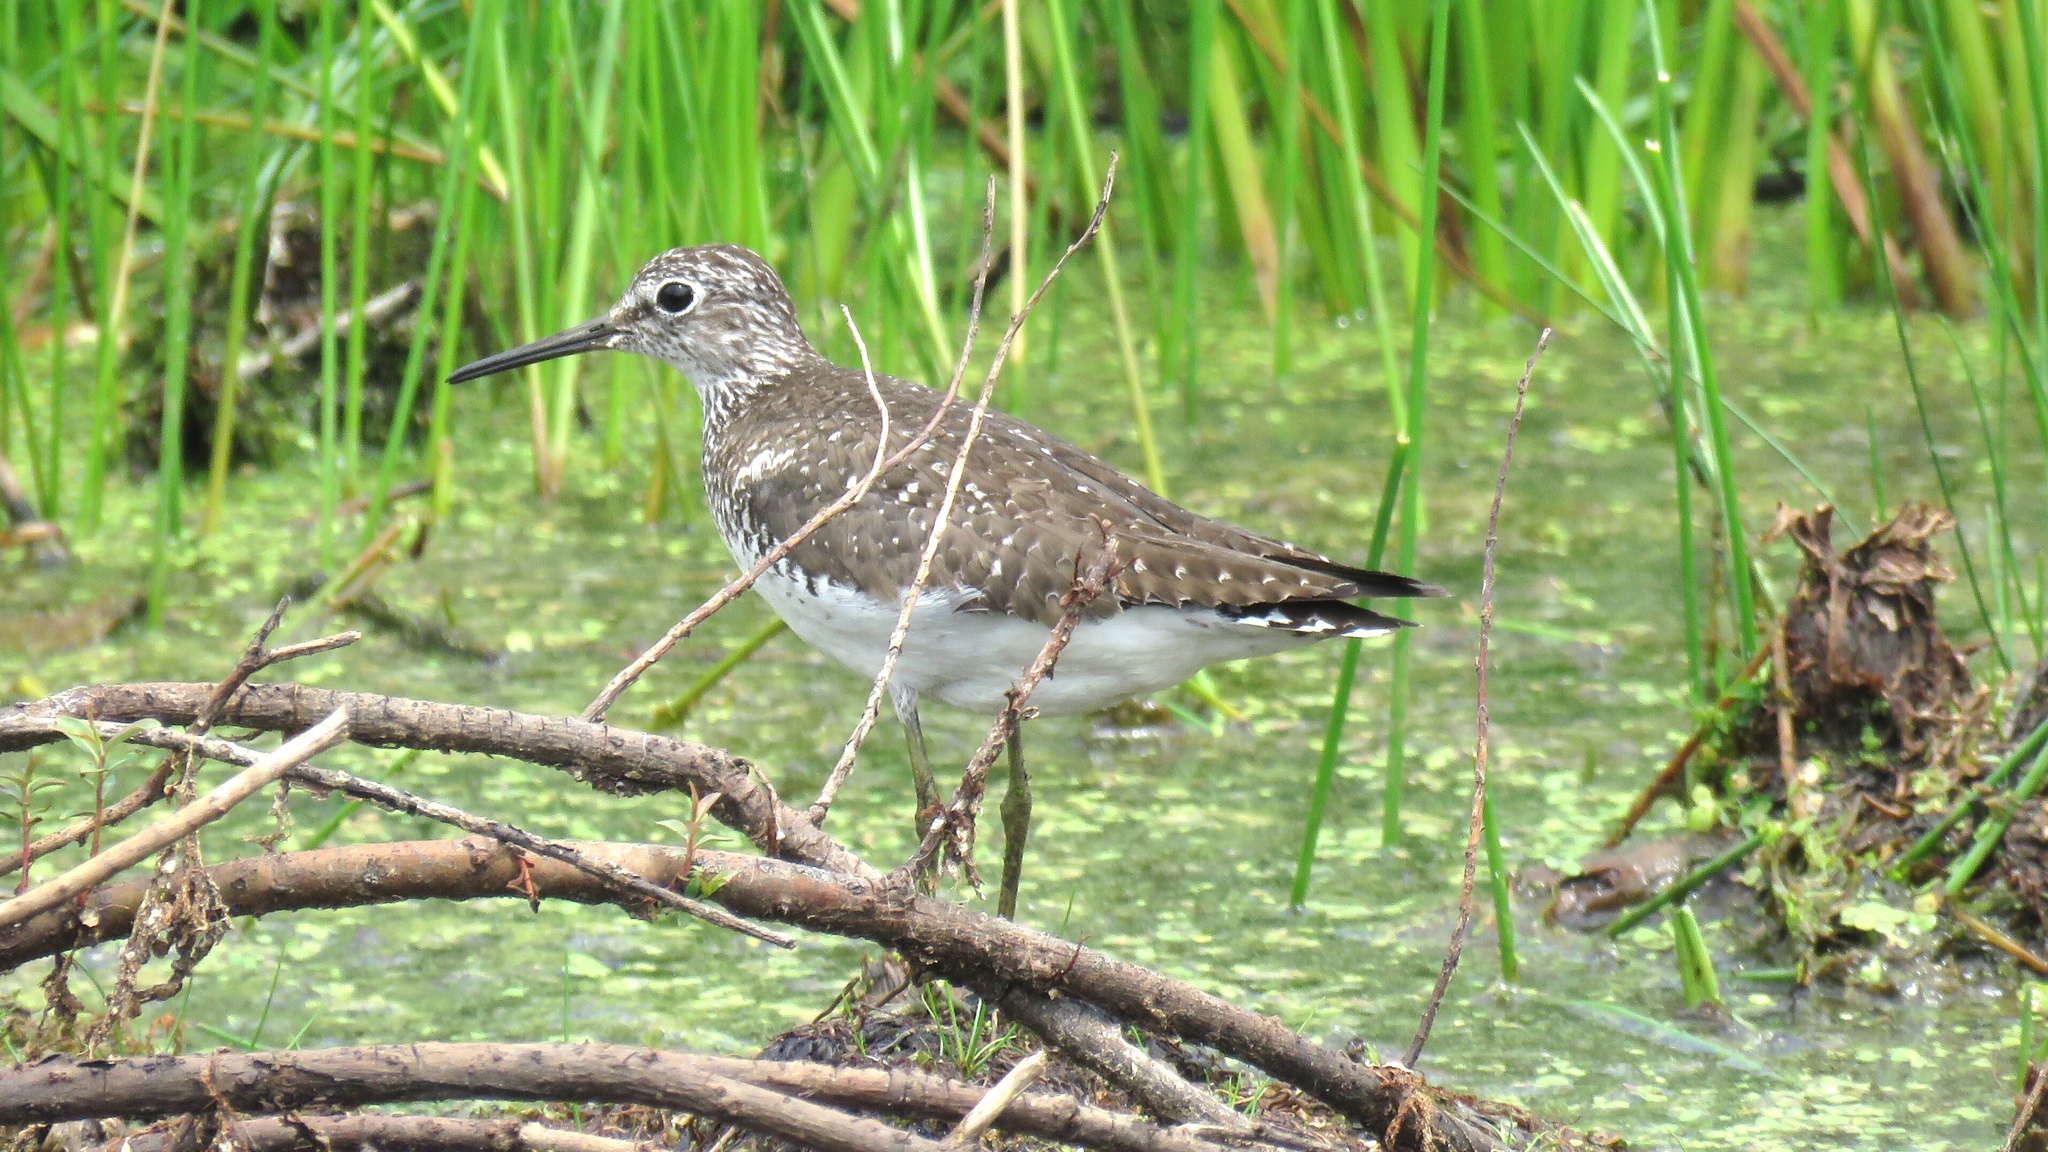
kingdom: Animalia
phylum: Chordata
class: Aves
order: Charadriiformes
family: Scolopacidae
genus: Tringa
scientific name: Tringa solitaria
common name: Solitary sandpiper
